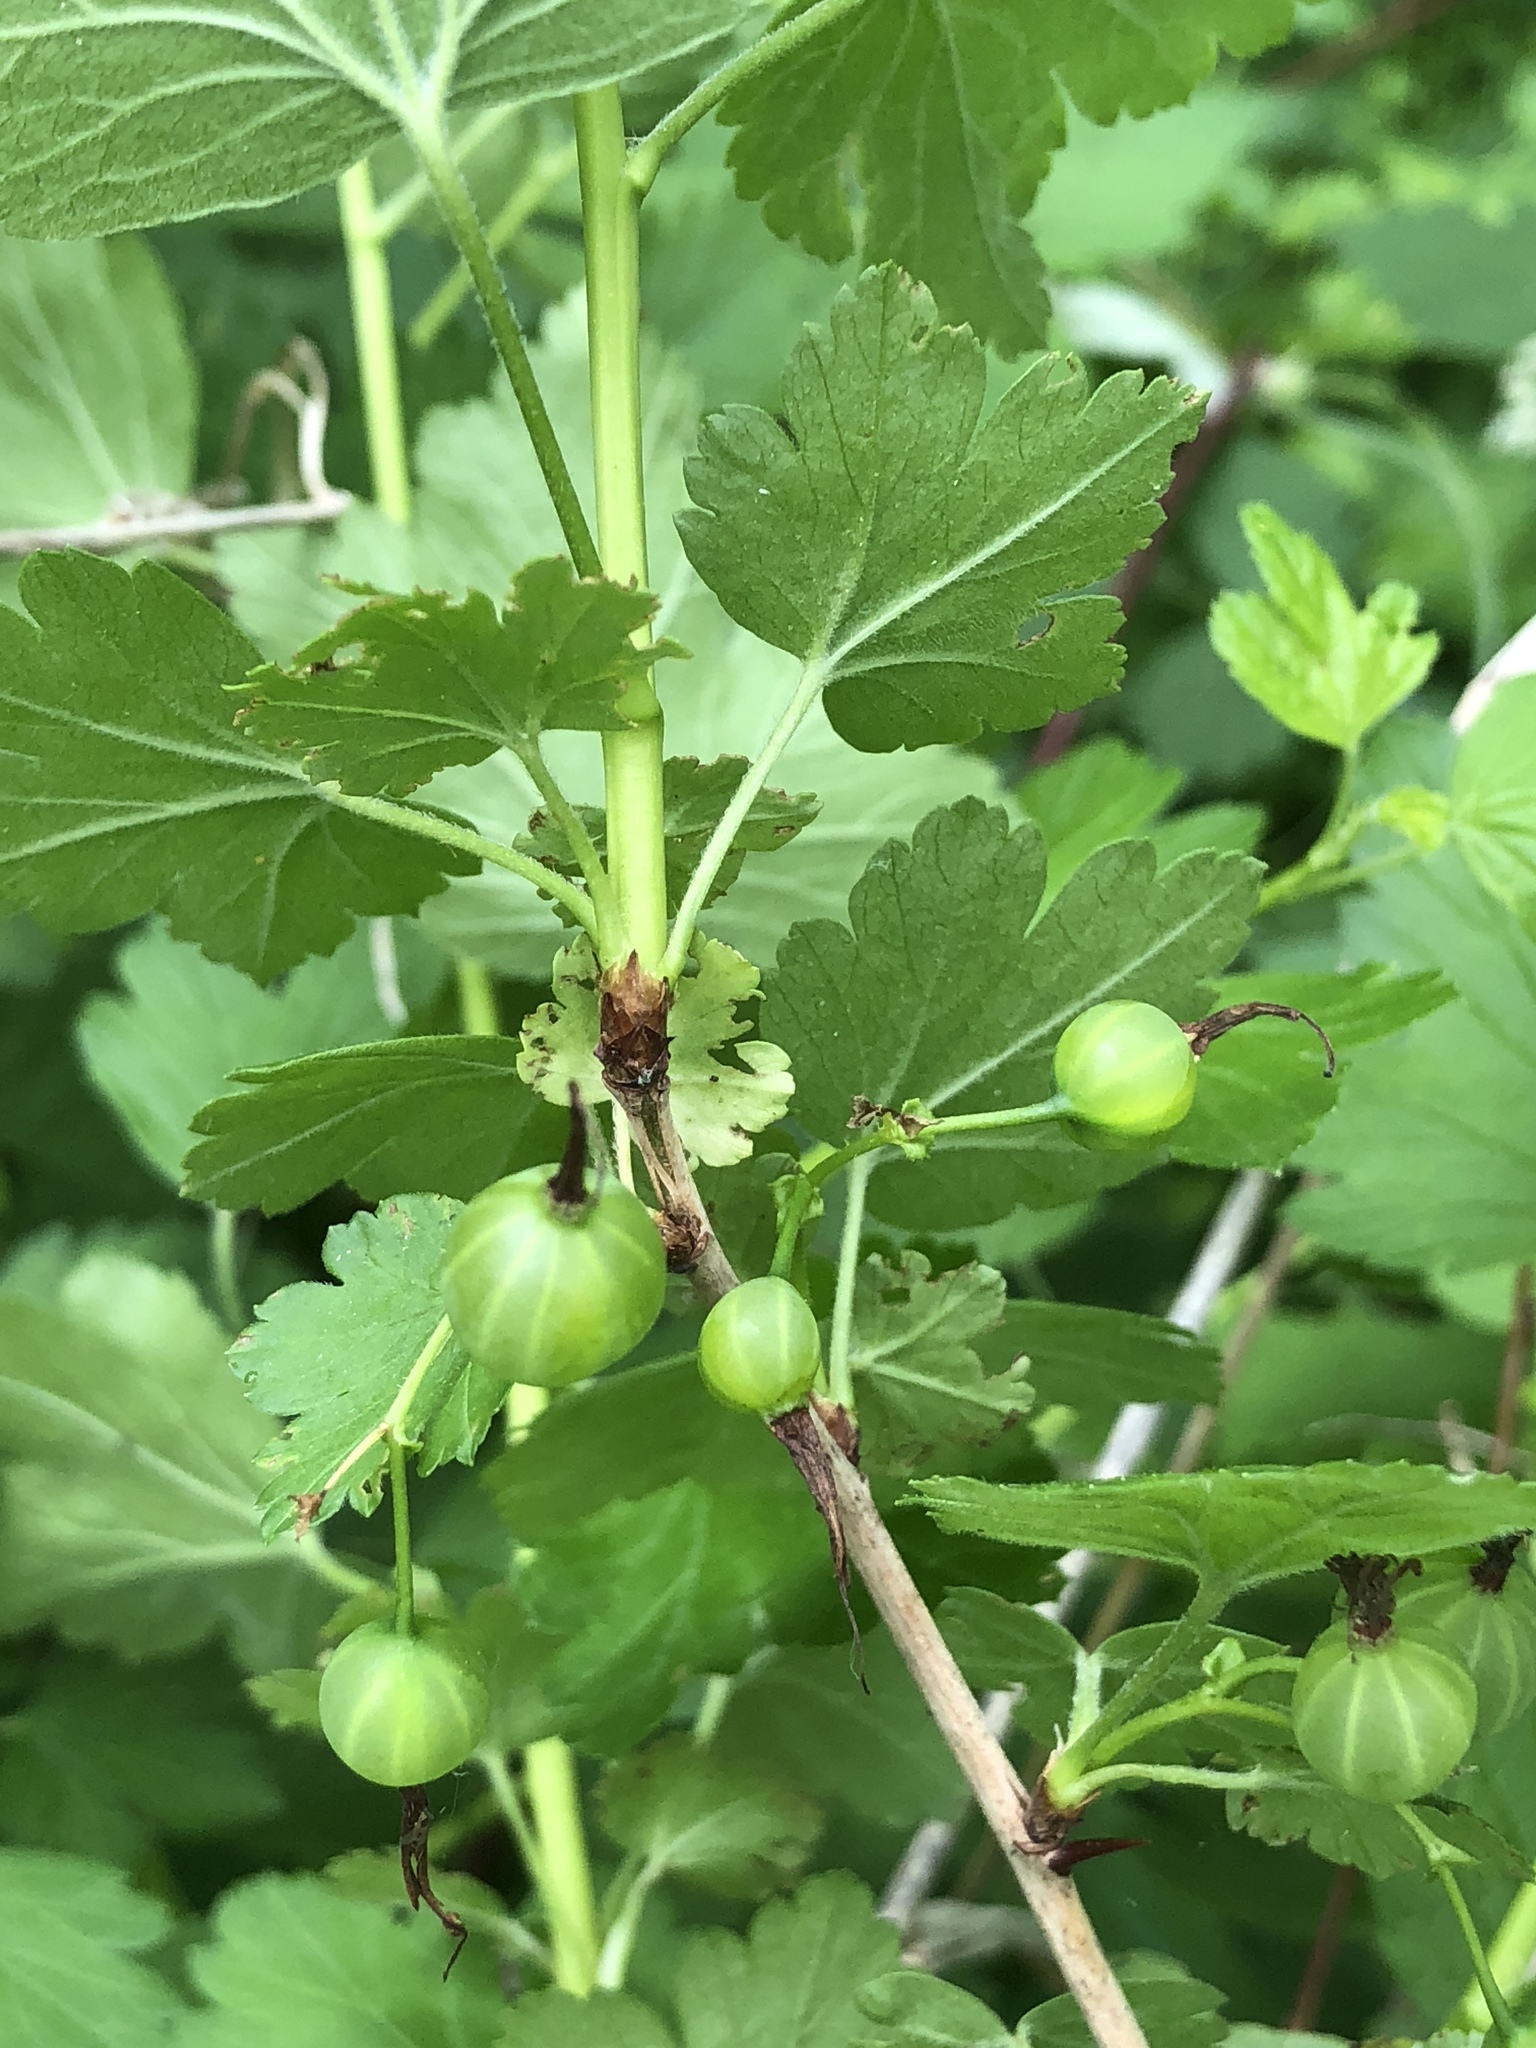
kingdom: Plantae
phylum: Tracheophyta
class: Magnoliopsida
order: Saxifragales
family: Grossulariaceae
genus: Ribes
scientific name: Ribes missouriense
